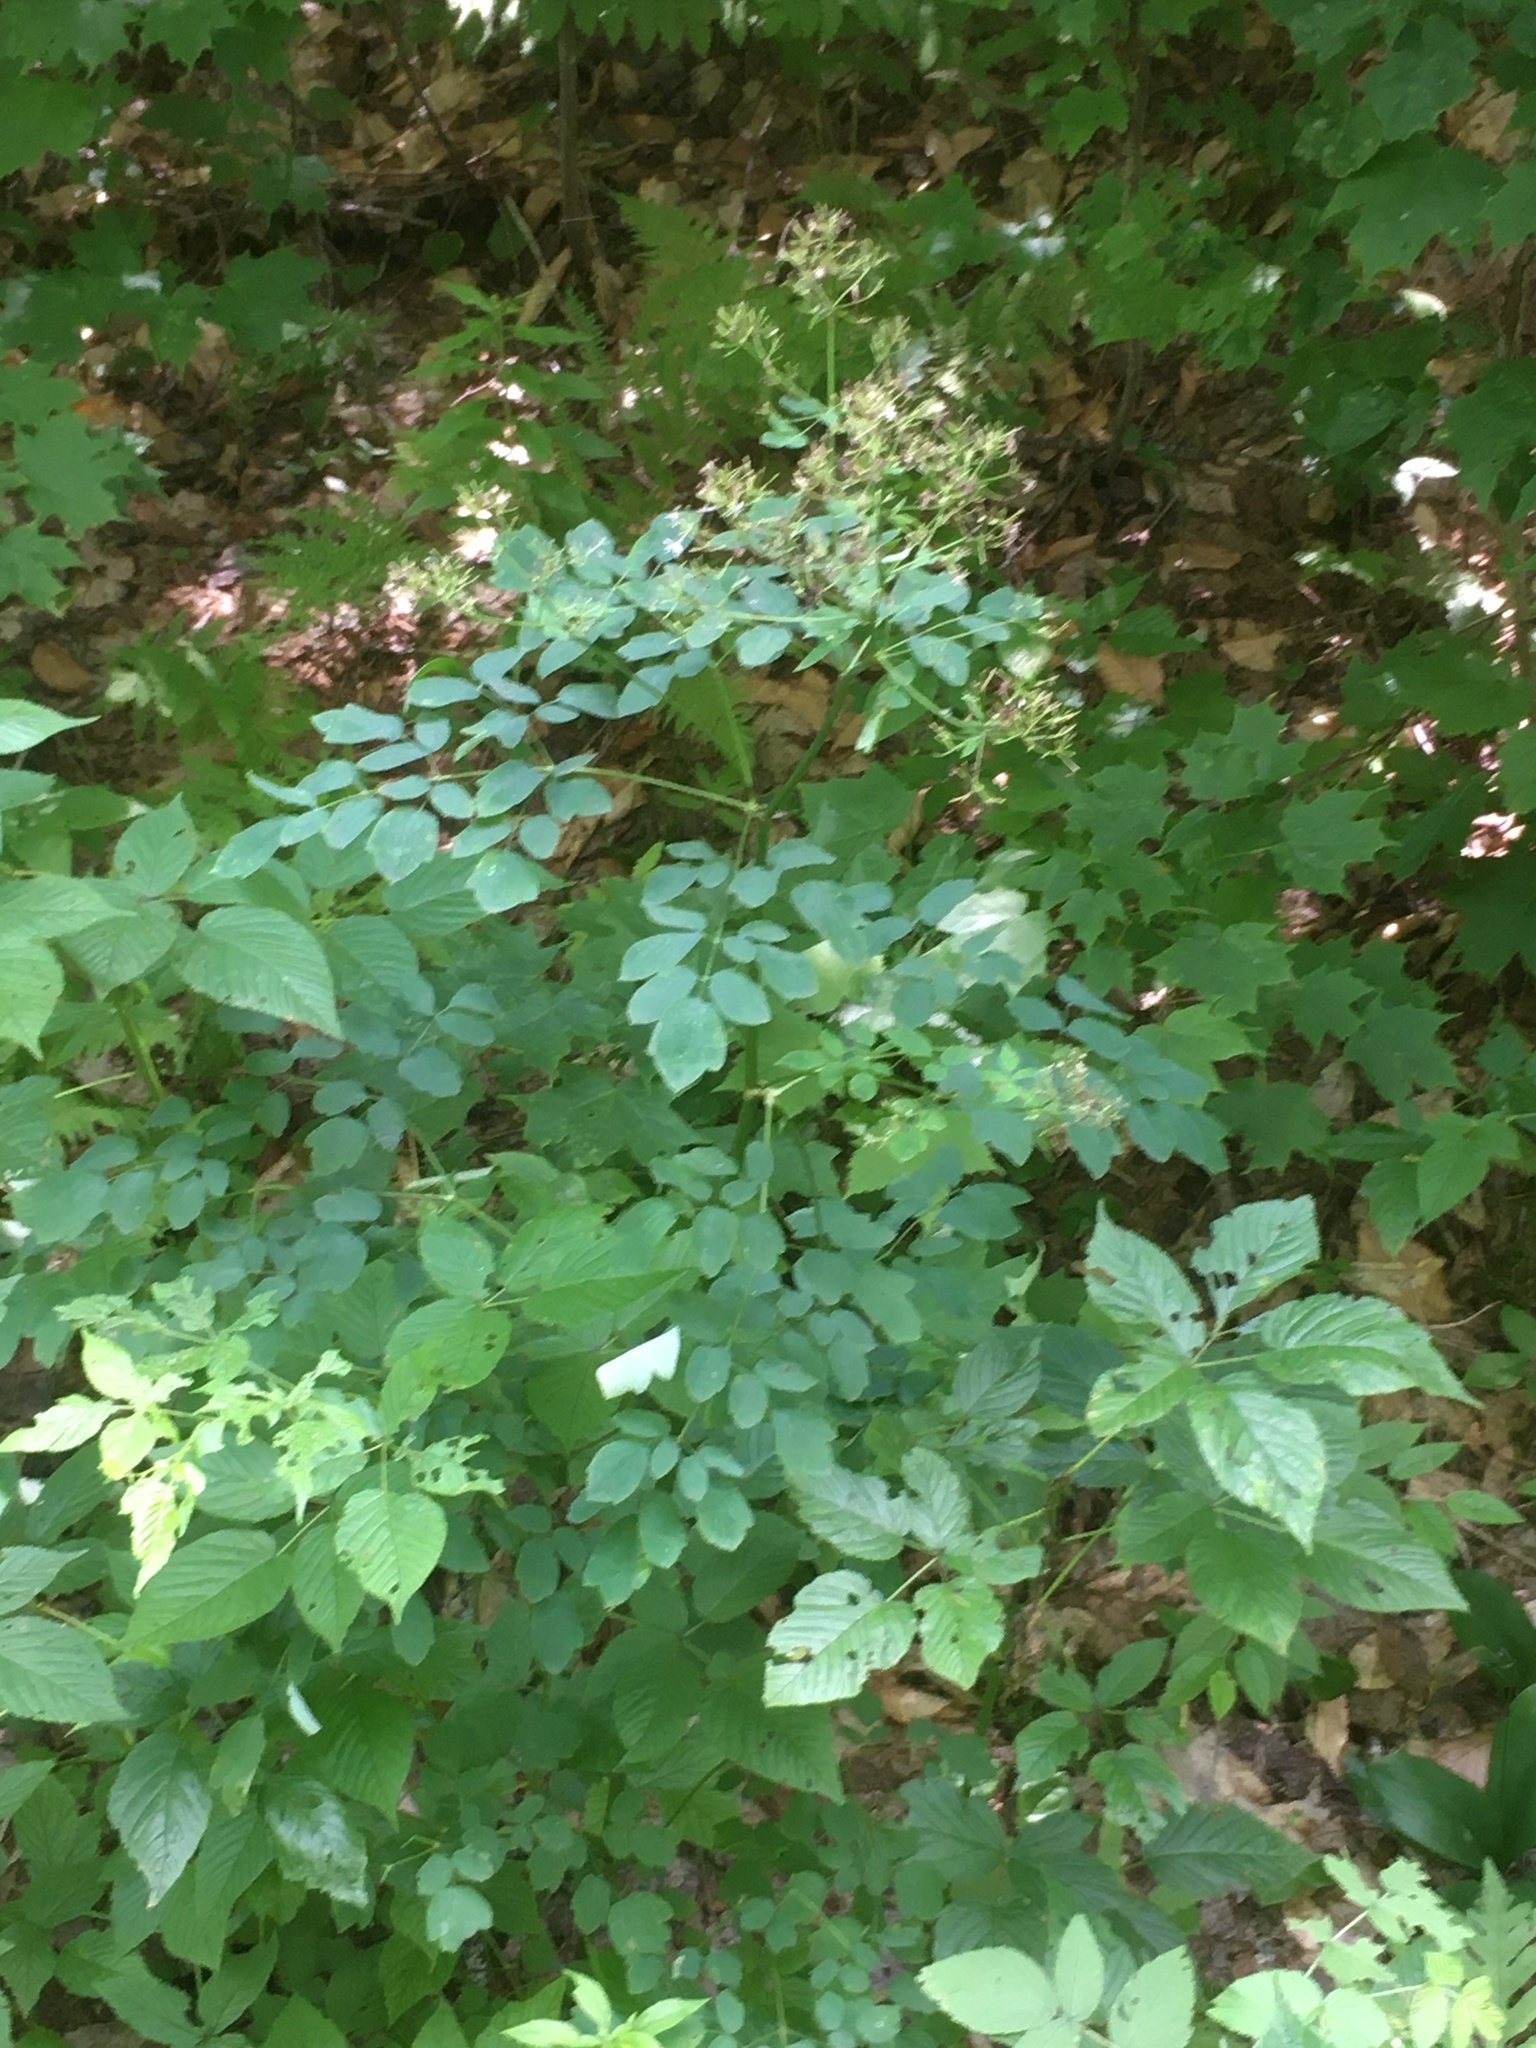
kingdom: Plantae
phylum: Tracheophyta
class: Magnoliopsida
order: Ranunculales
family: Ranunculaceae
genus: Thalictrum
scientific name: Thalictrum pubescens
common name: King-of-the-meadow
